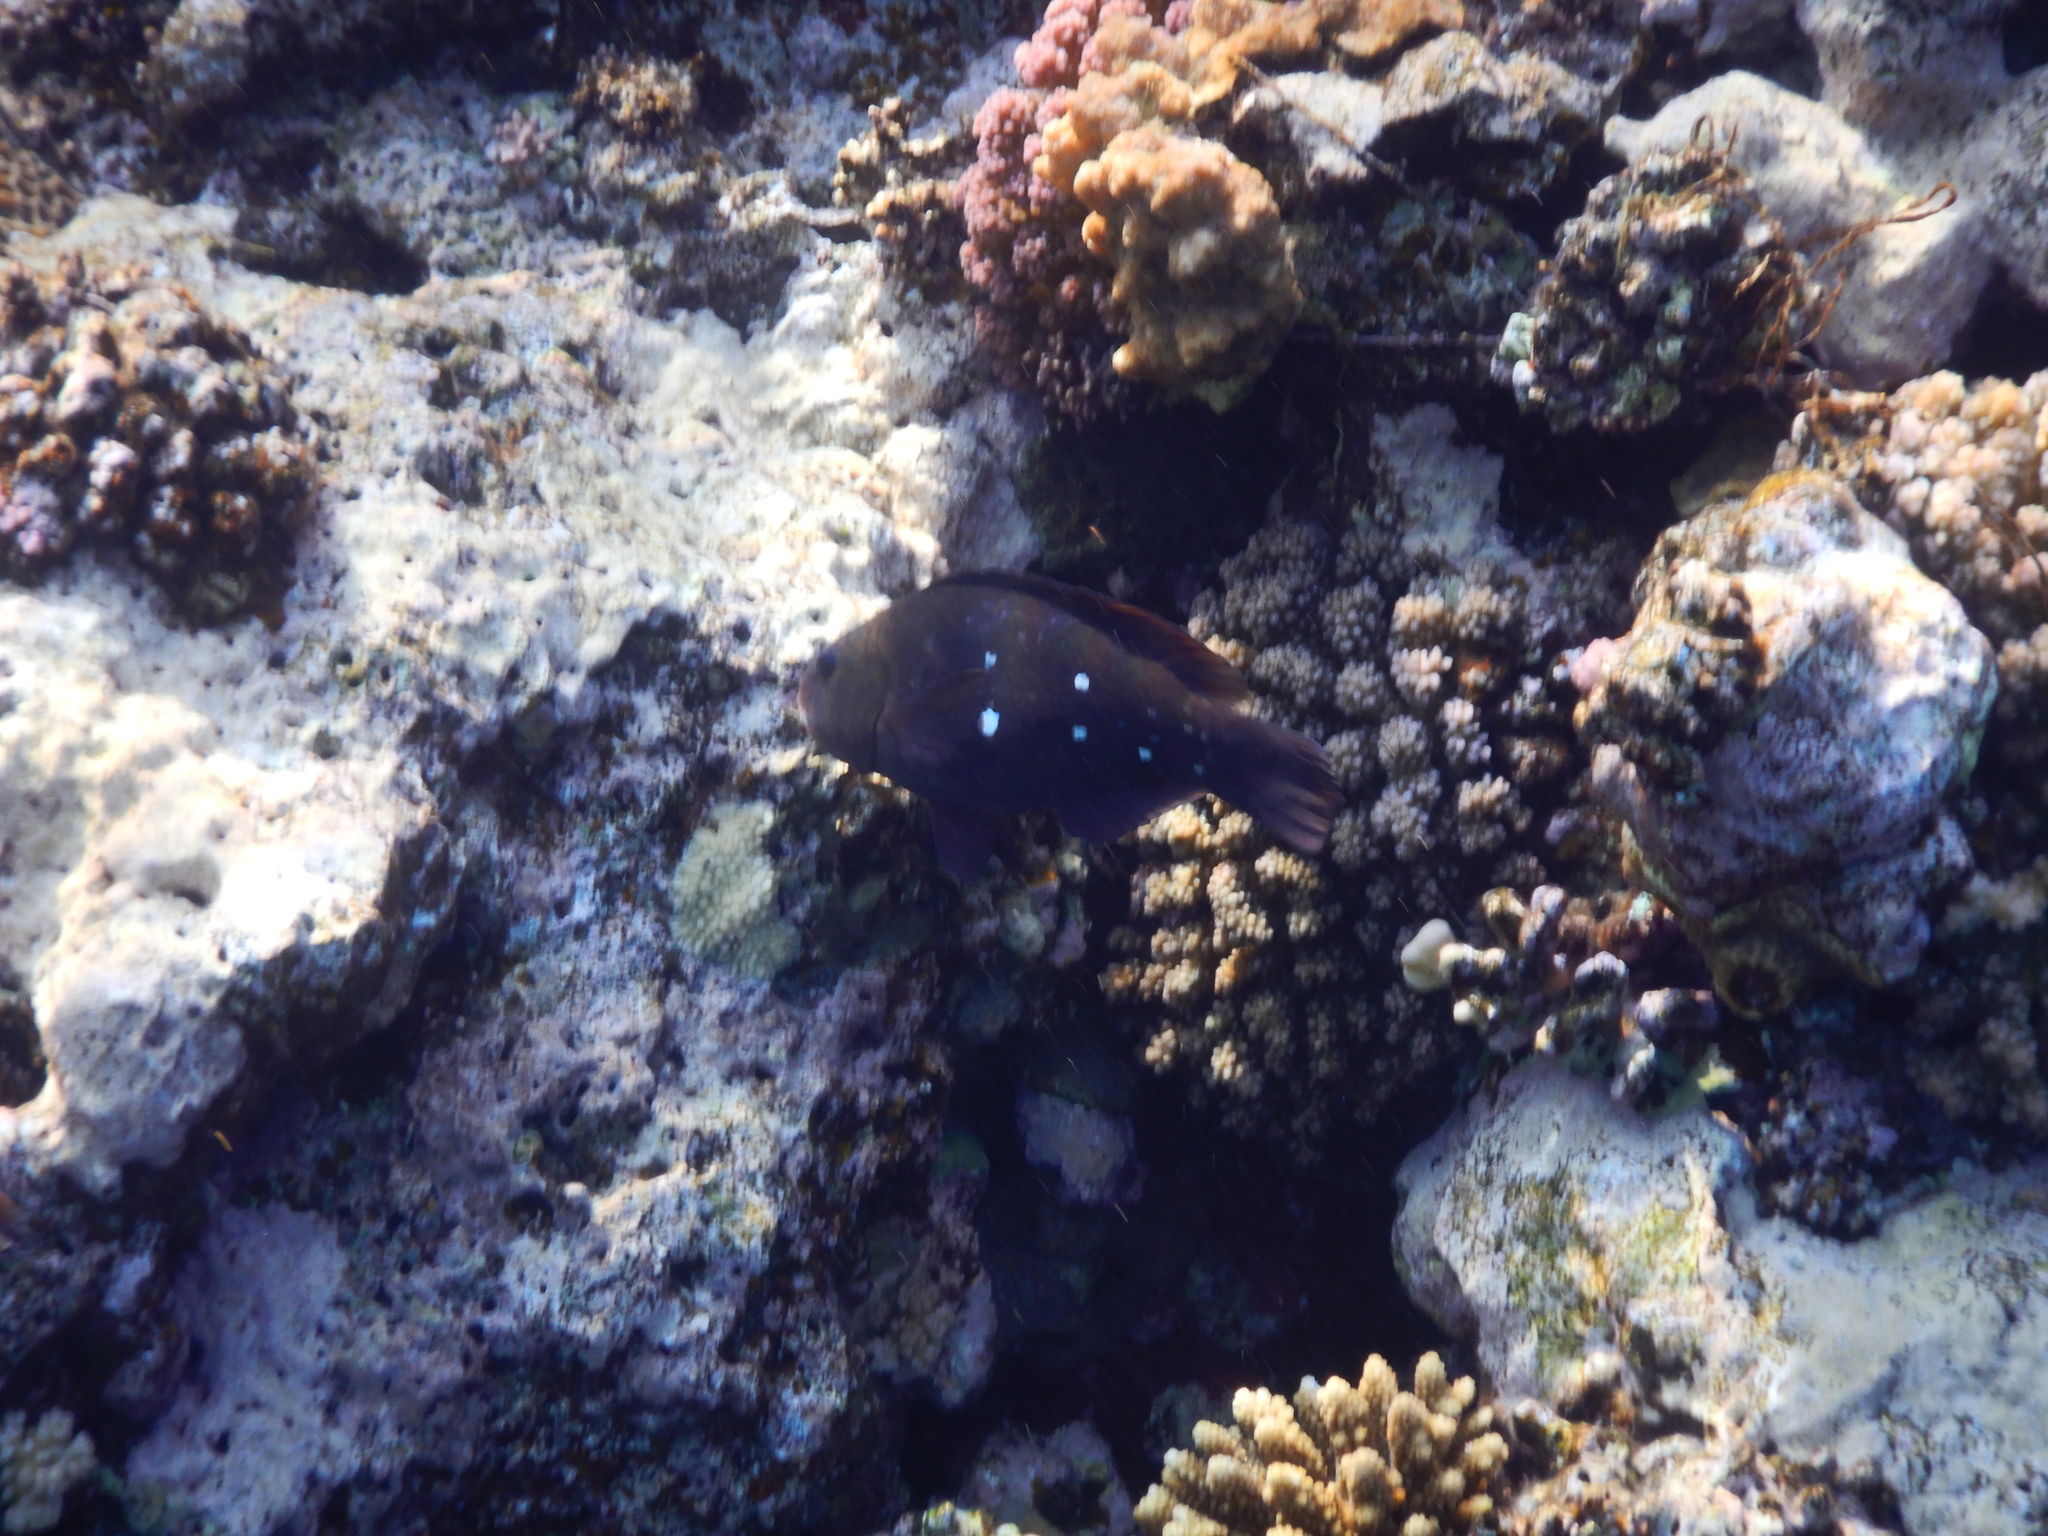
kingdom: Animalia
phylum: Chordata
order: Perciformes
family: Scaridae
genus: Chlorurus
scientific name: Chlorurus sordidus
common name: Bullethead parrotfish
